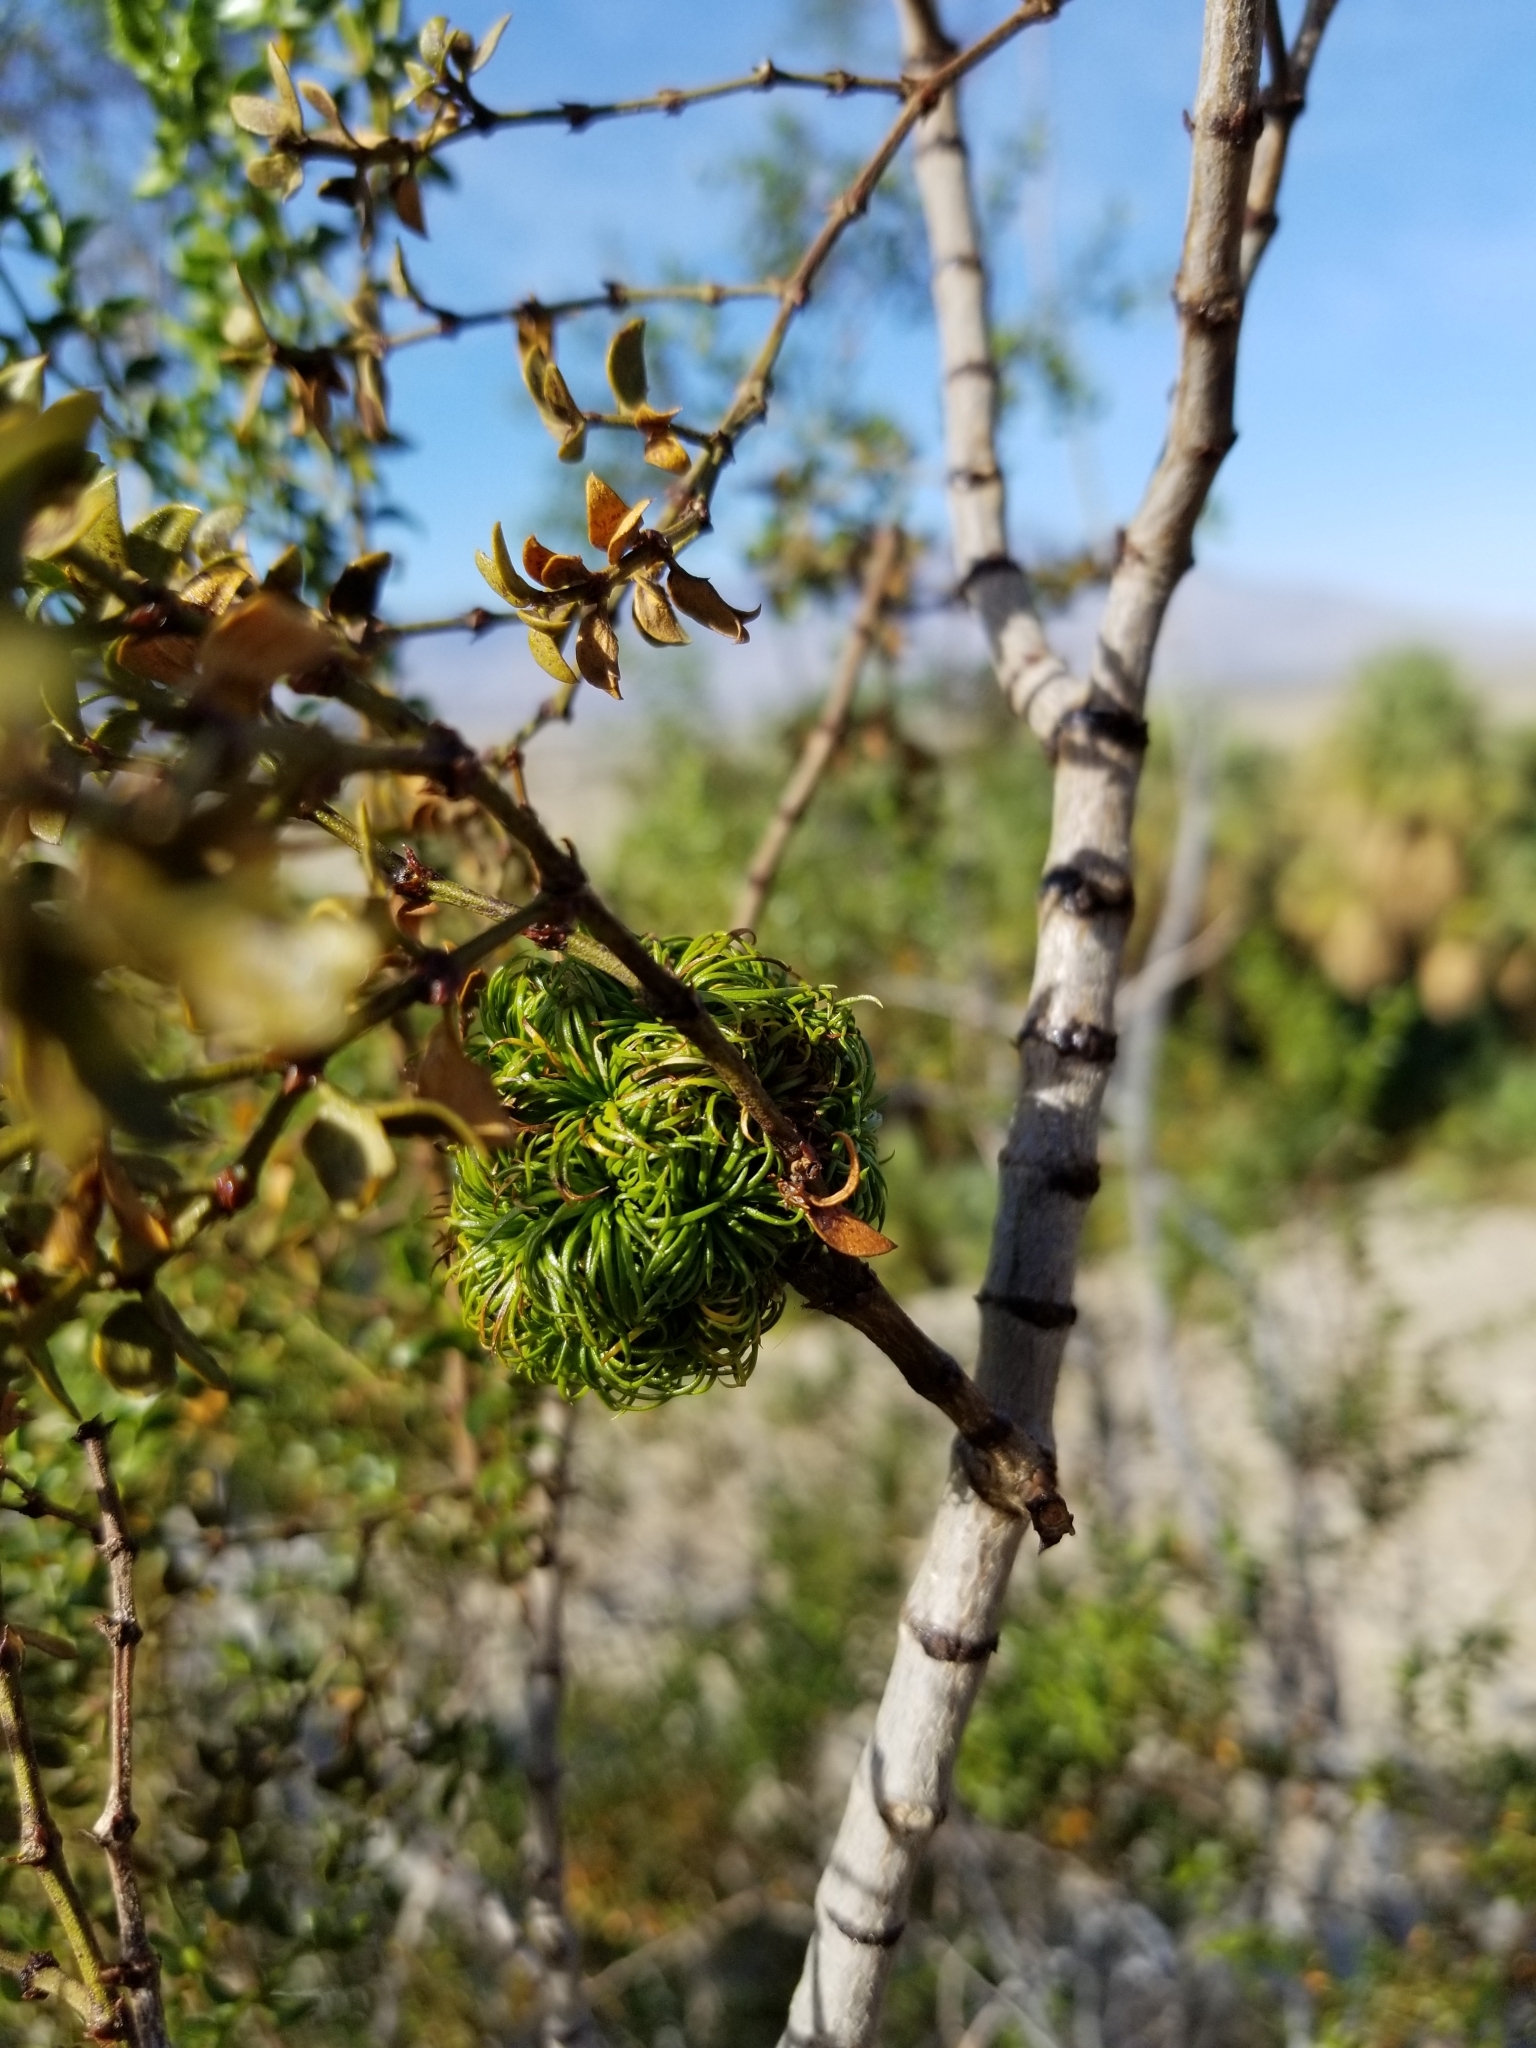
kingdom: Animalia
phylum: Arthropoda
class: Insecta
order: Diptera
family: Cecidomyiidae
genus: Asphondylia
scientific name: Asphondylia auripila
